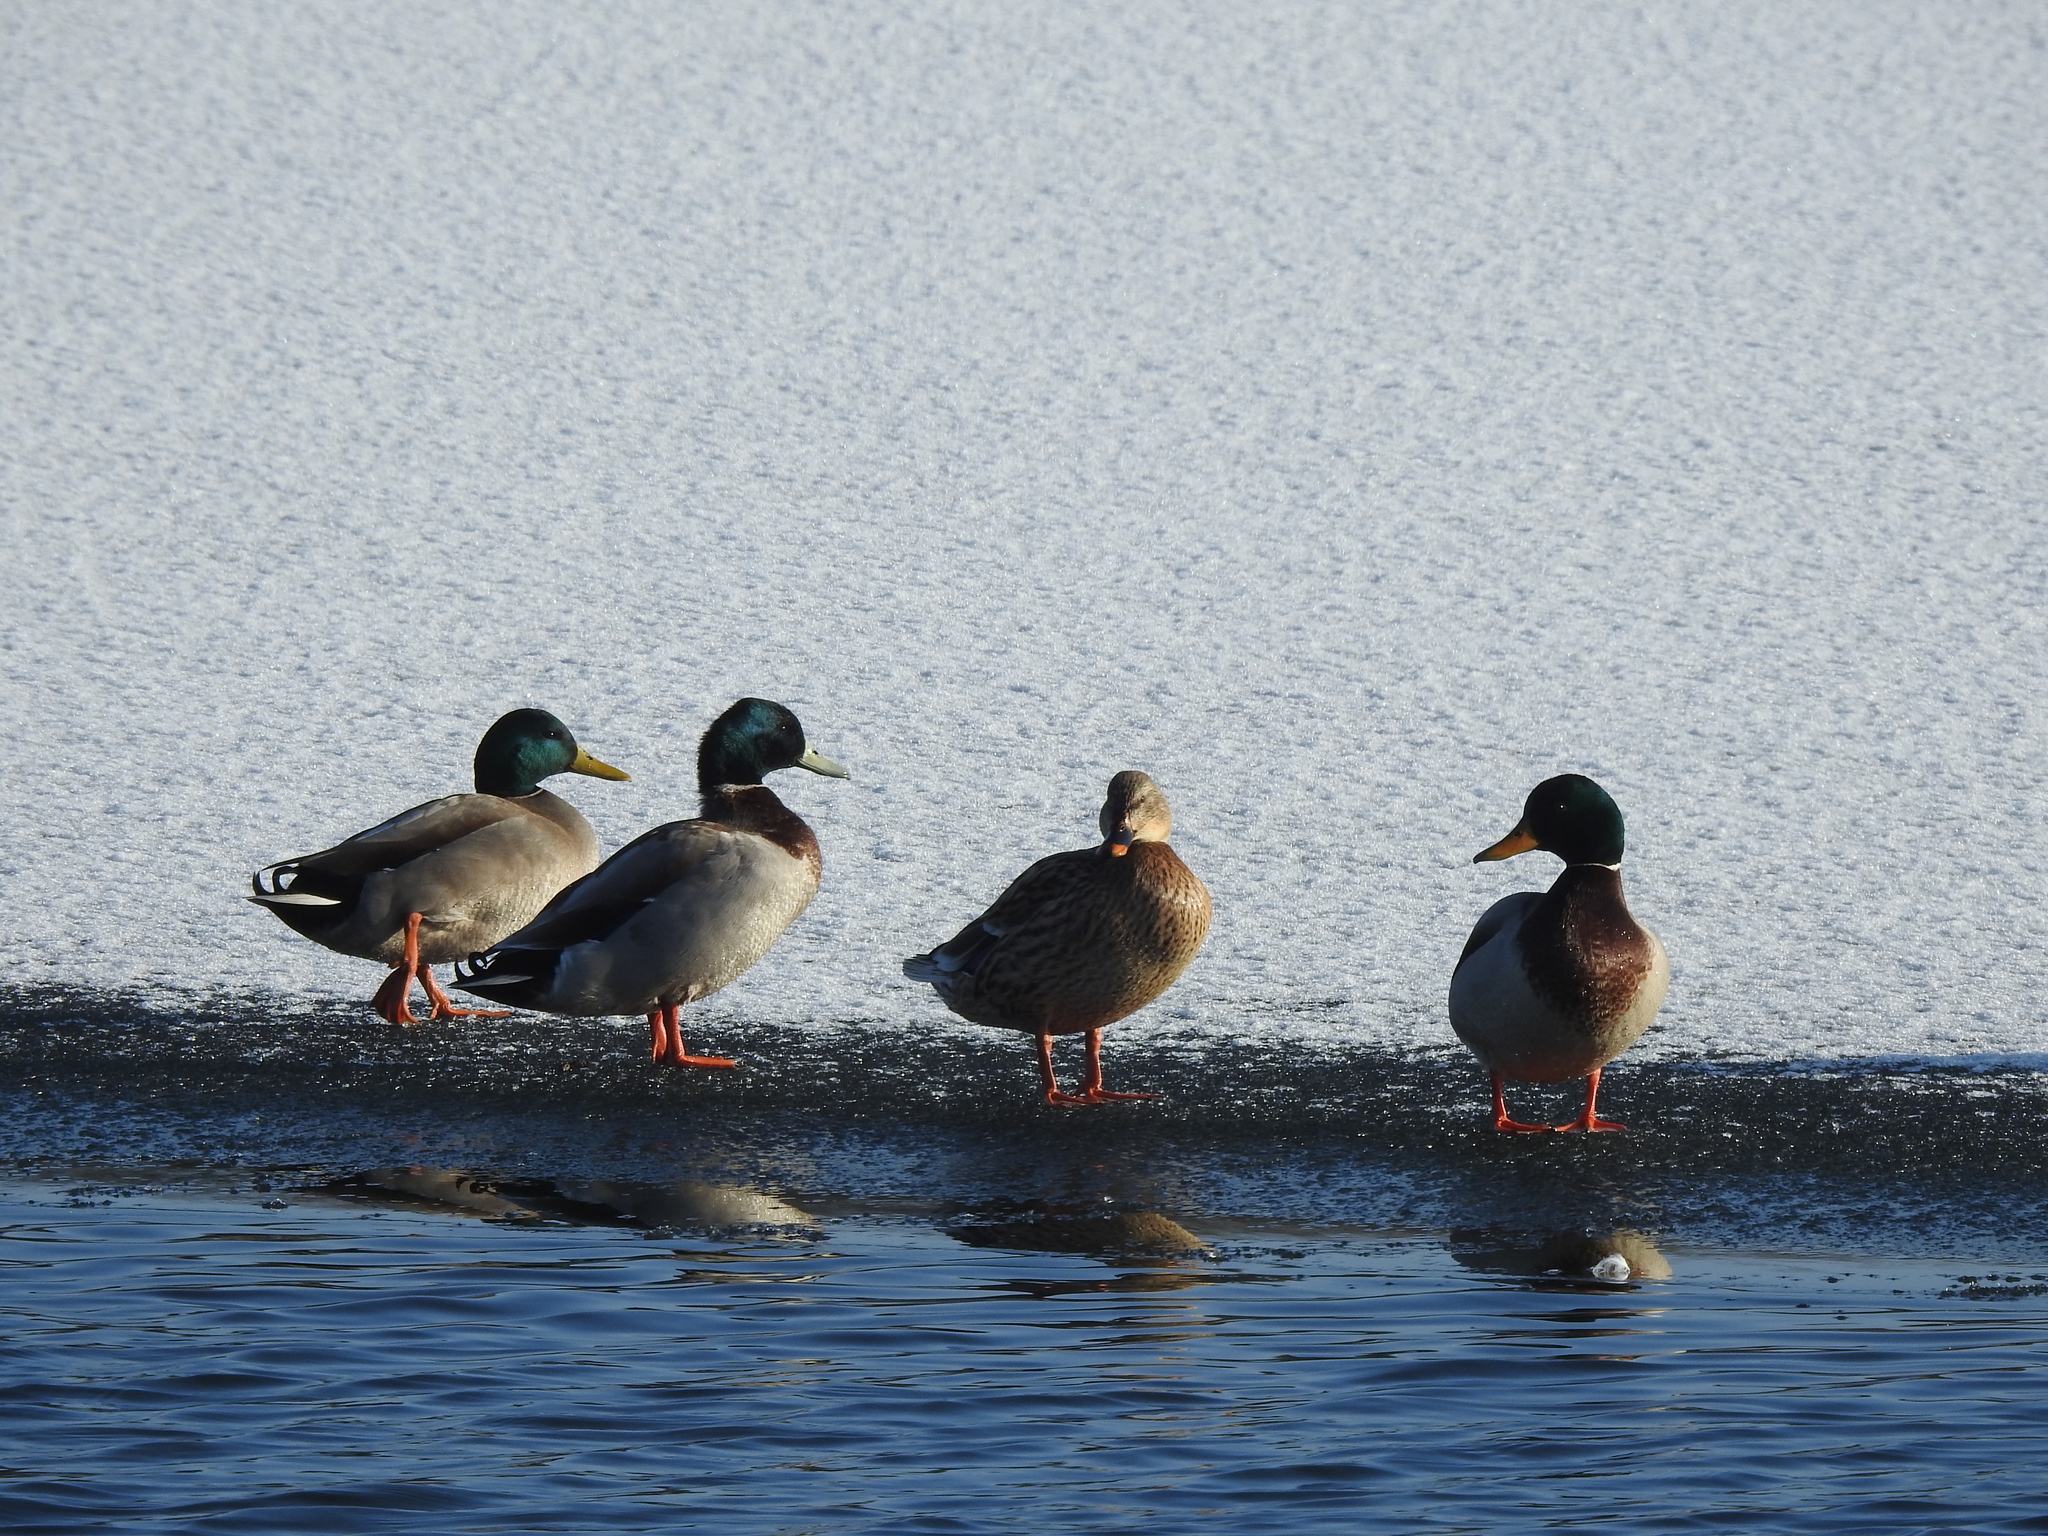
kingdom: Animalia
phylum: Chordata
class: Aves
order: Anseriformes
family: Anatidae
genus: Anas
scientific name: Anas platyrhynchos
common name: Mallard
